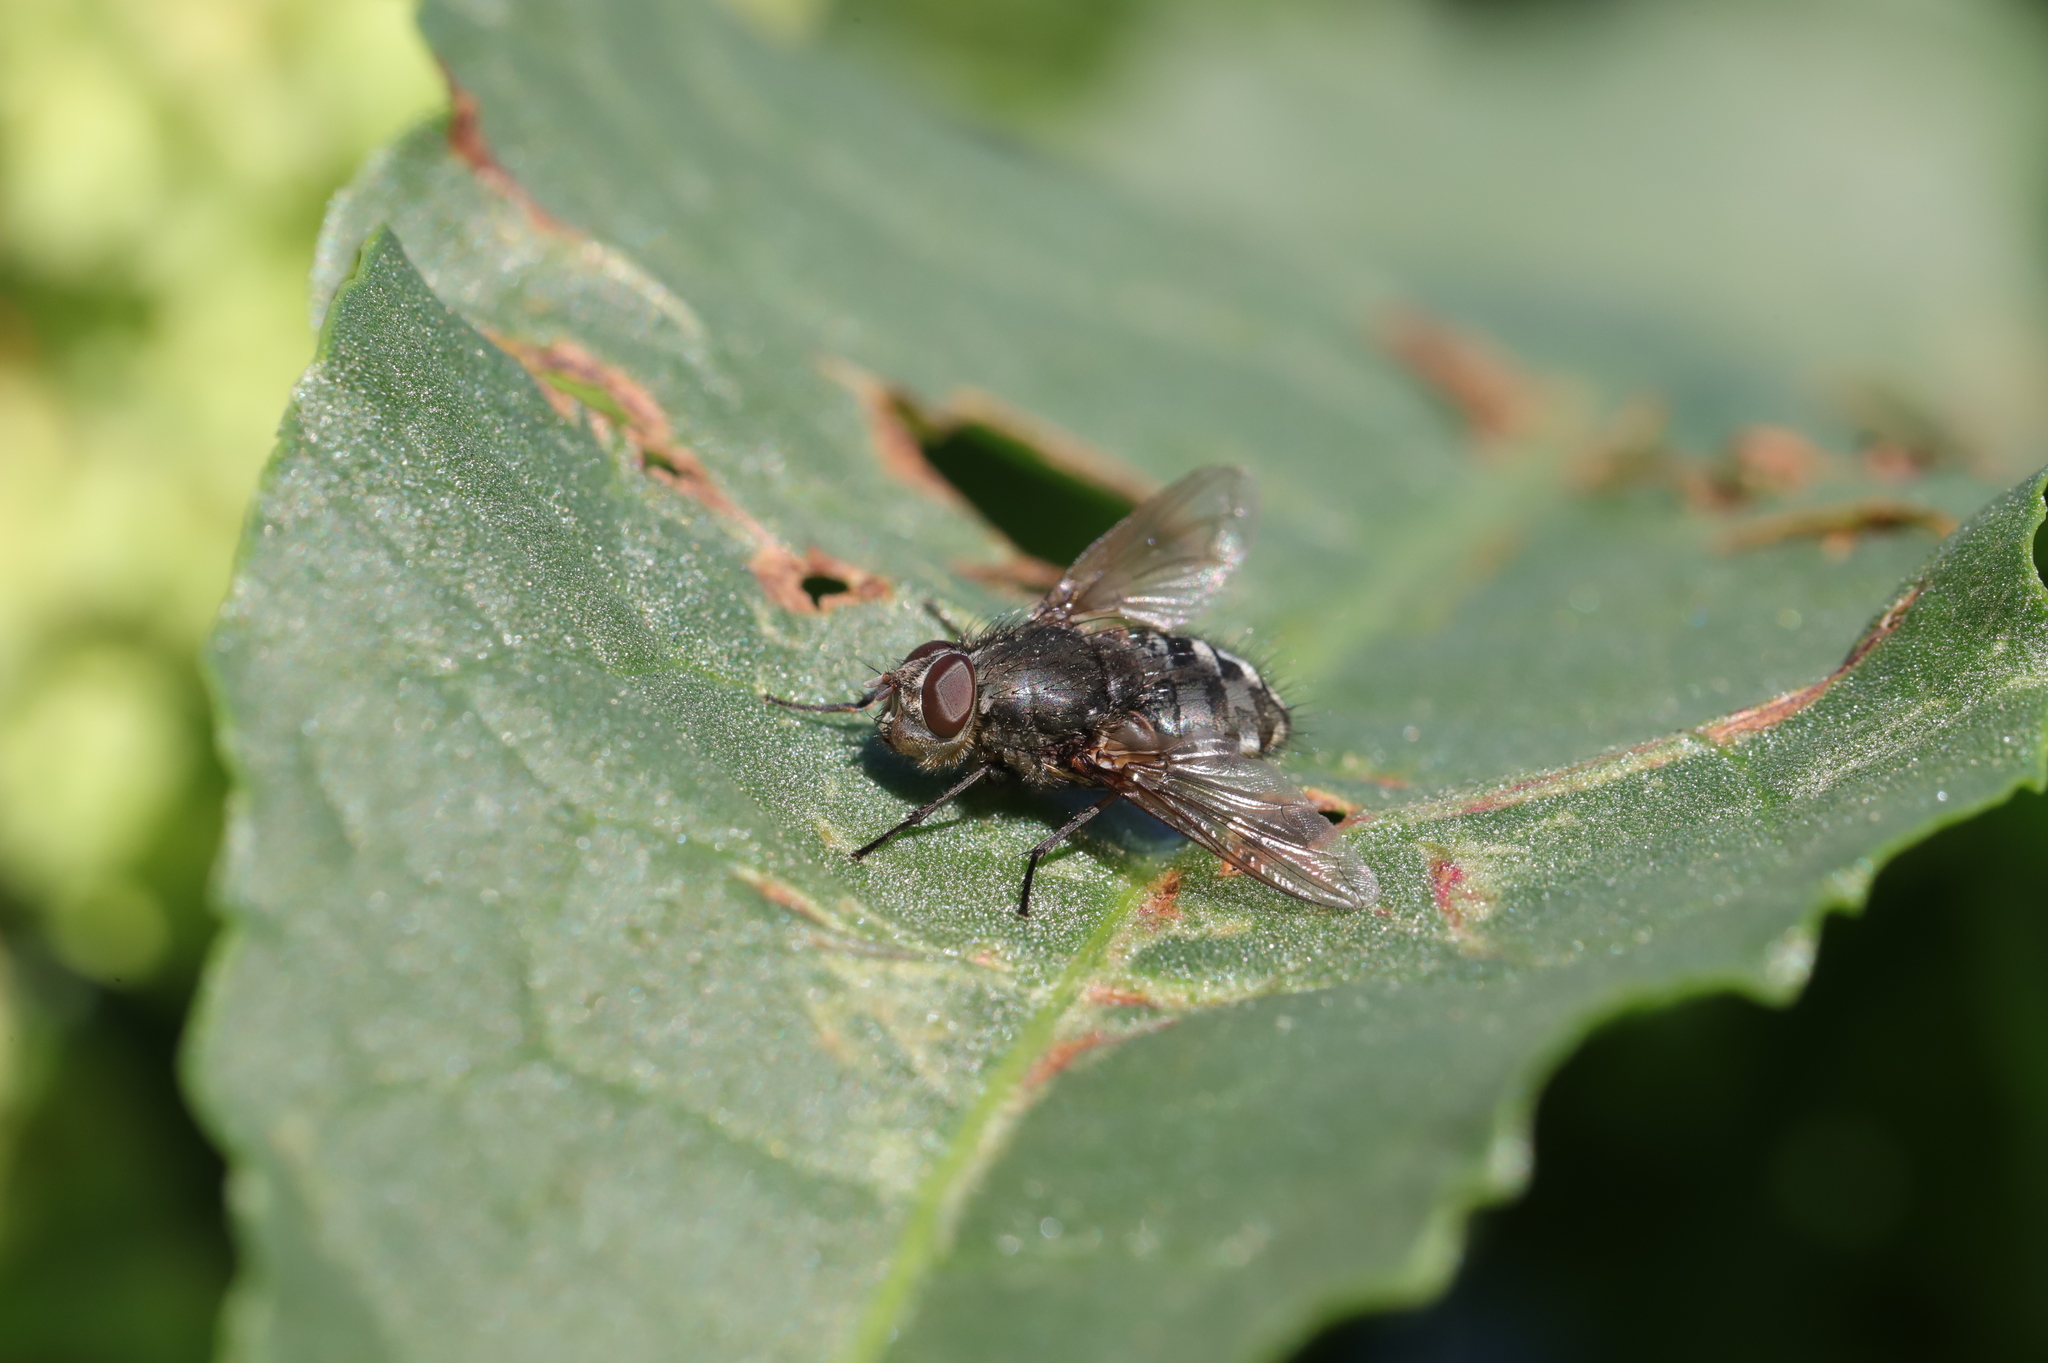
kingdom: Animalia
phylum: Arthropoda
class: Insecta
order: Diptera
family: Polleniidae
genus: Pollenia
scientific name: Pollenia
